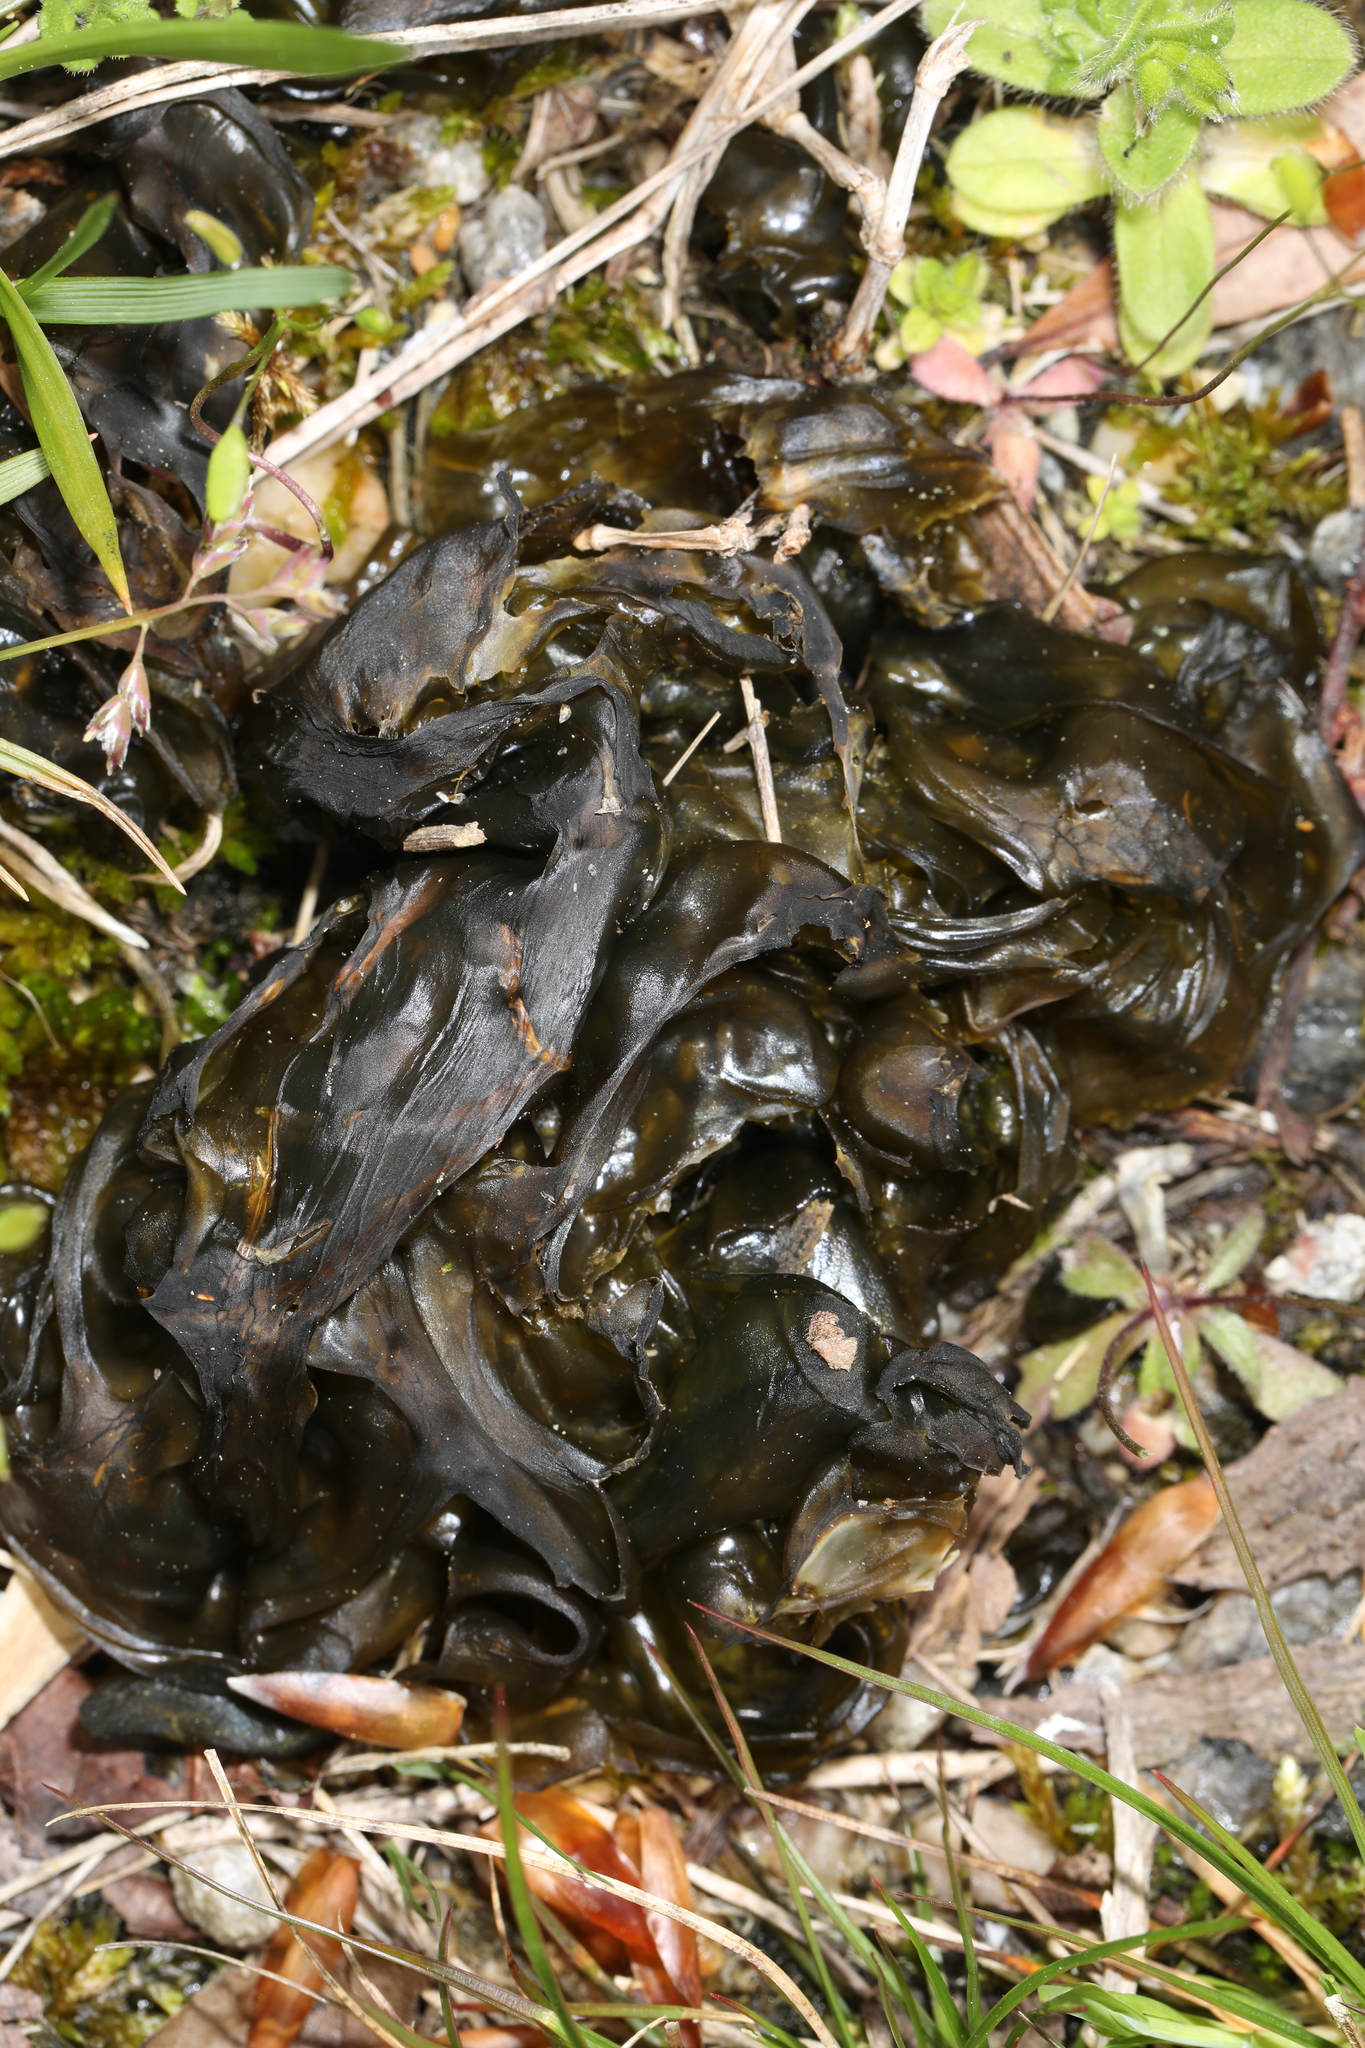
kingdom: Bacteria
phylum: Cyanobacteria
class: Cyanobacteriia
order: Cyanobacteriales
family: Nostocaceae
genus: Nostoc
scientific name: Nostoc commune
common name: Star jelly
